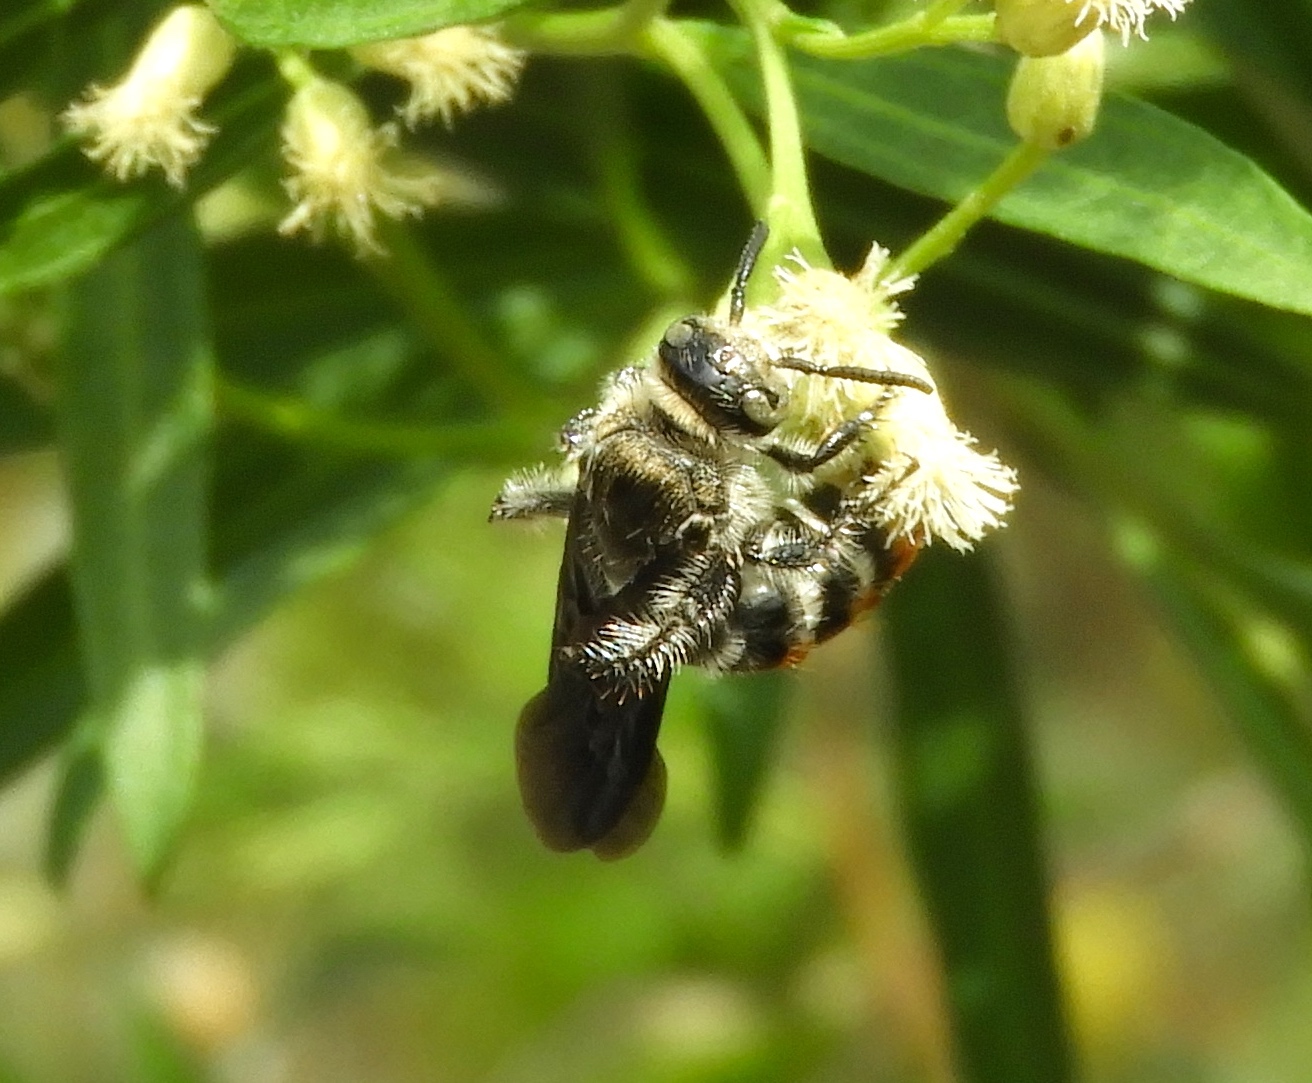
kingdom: Animalia
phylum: Arthropoda
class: Insecta
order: Hymenoptera
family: Scoliidae
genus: Dielis
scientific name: Dielis tolteca
